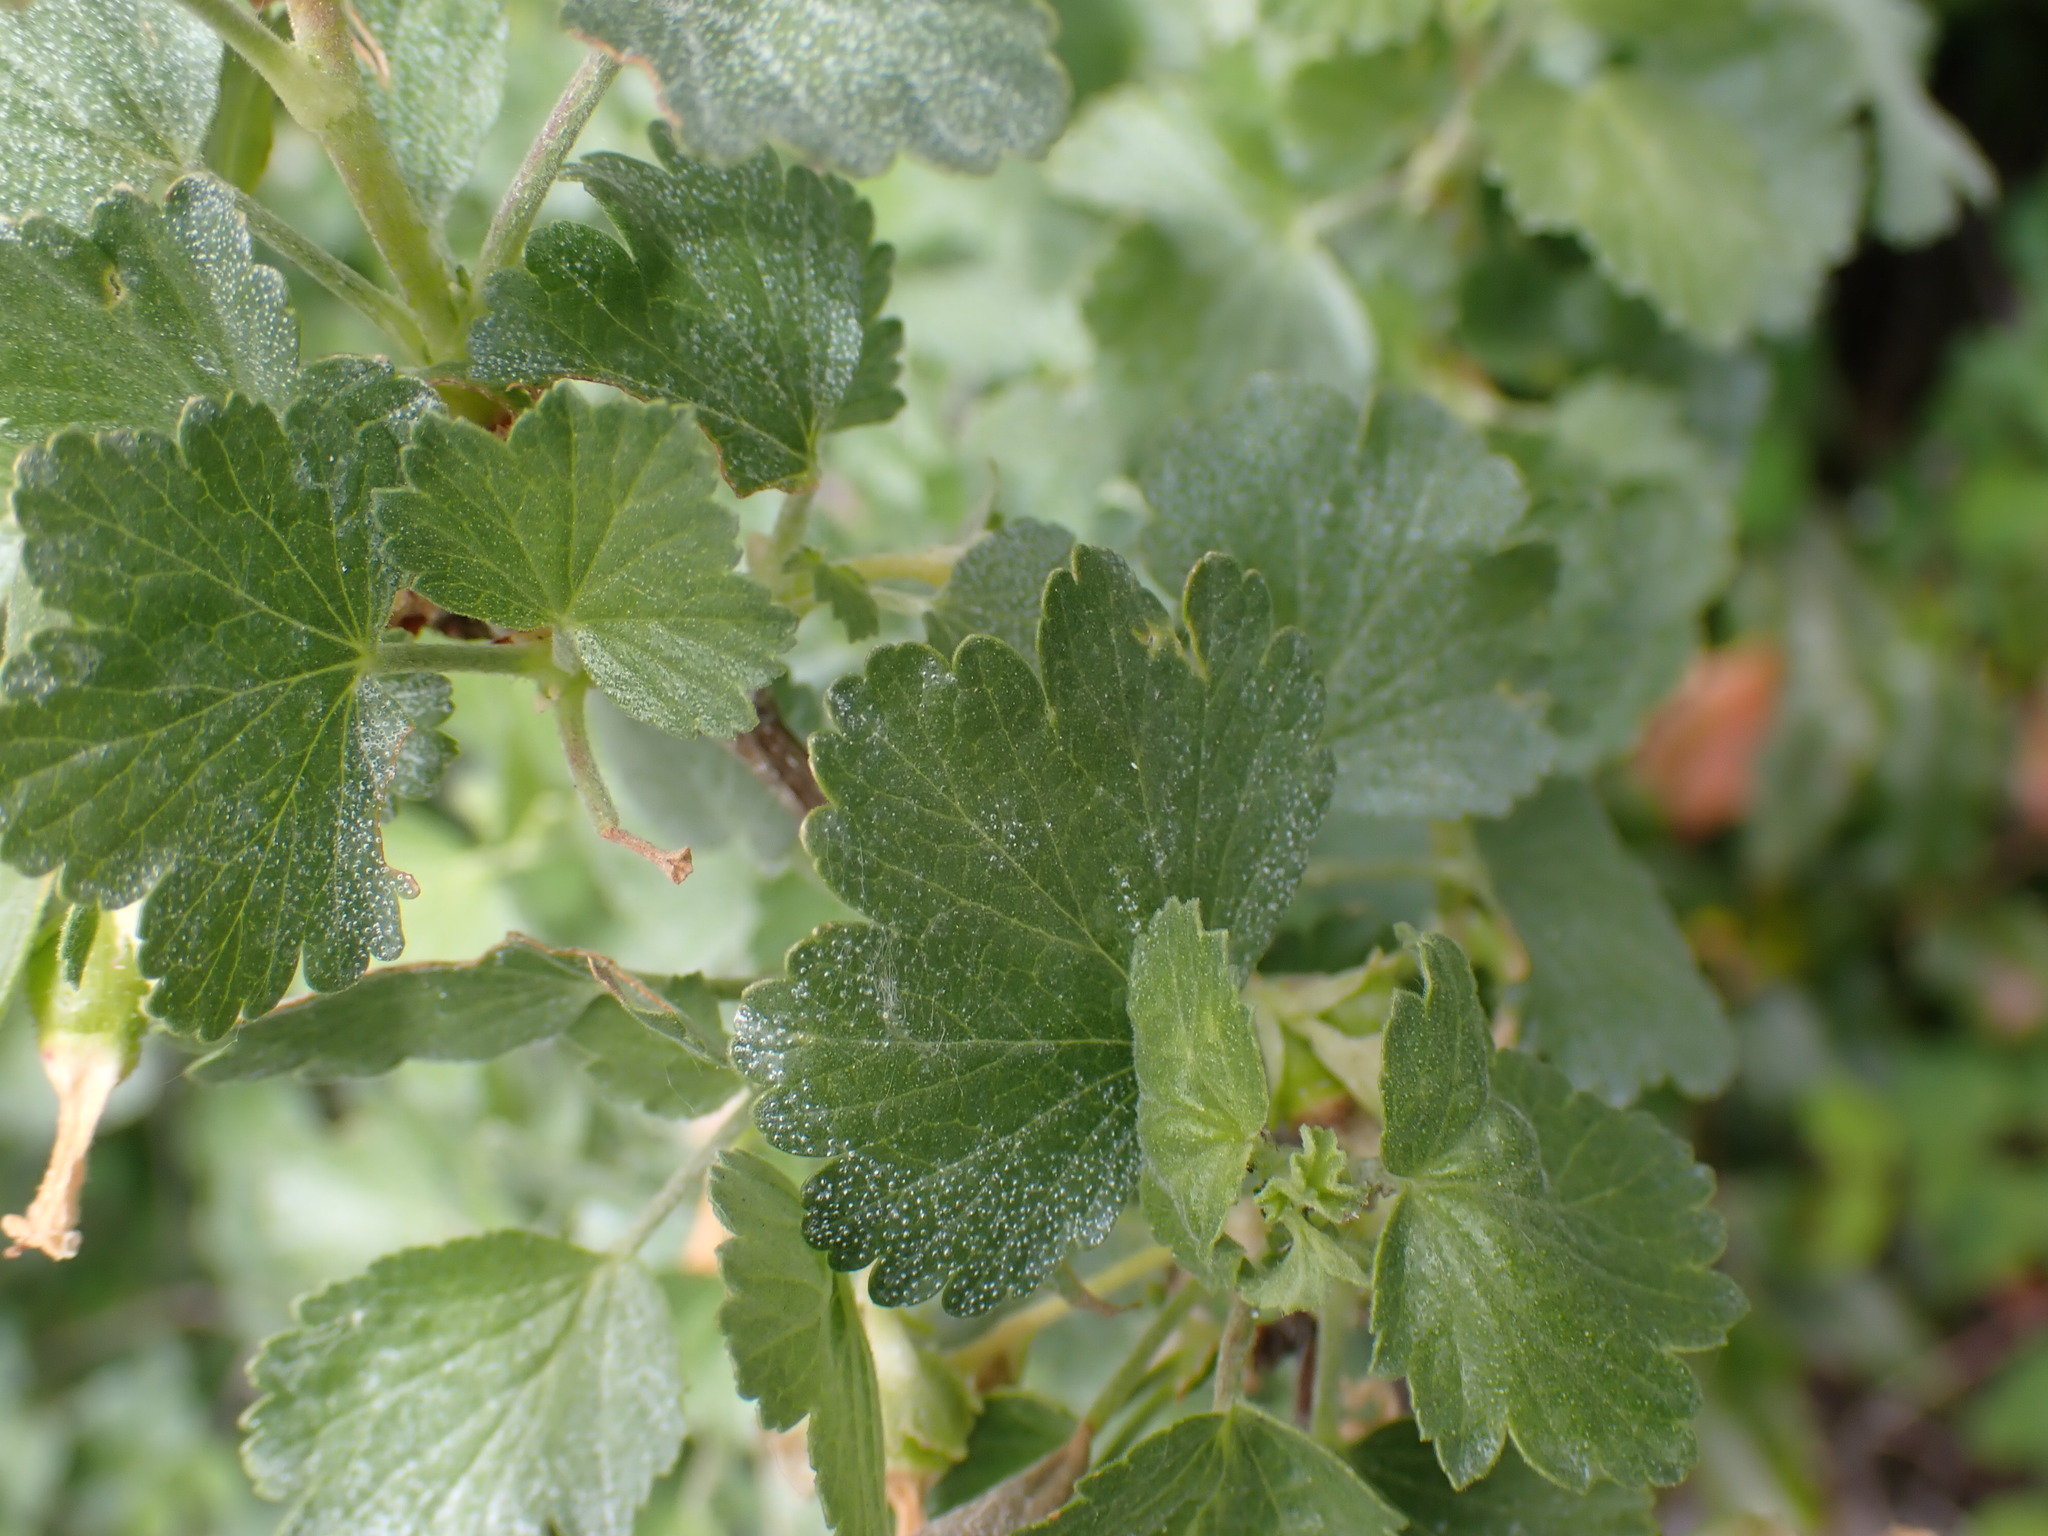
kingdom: Plantae
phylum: Tracheophyta
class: Magnoliopsida
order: Saxifragales
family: Grossulariaceae
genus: Ribes
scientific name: Ribes cereum
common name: Wax currant
